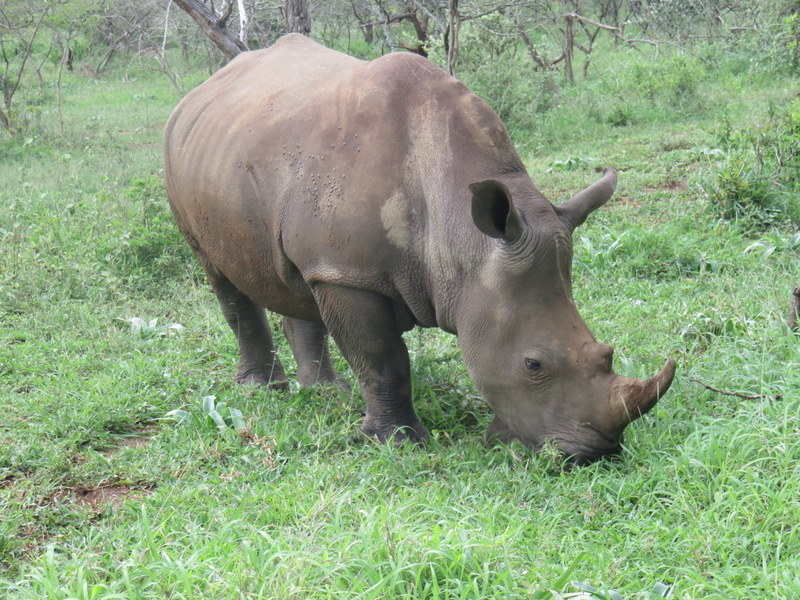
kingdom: Animalia
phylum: Chordata
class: Mammalia
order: Perissodactyla
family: Rhinocerotidae
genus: Ceratotherium
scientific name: Ceratotherium simum
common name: White rhinoceros
